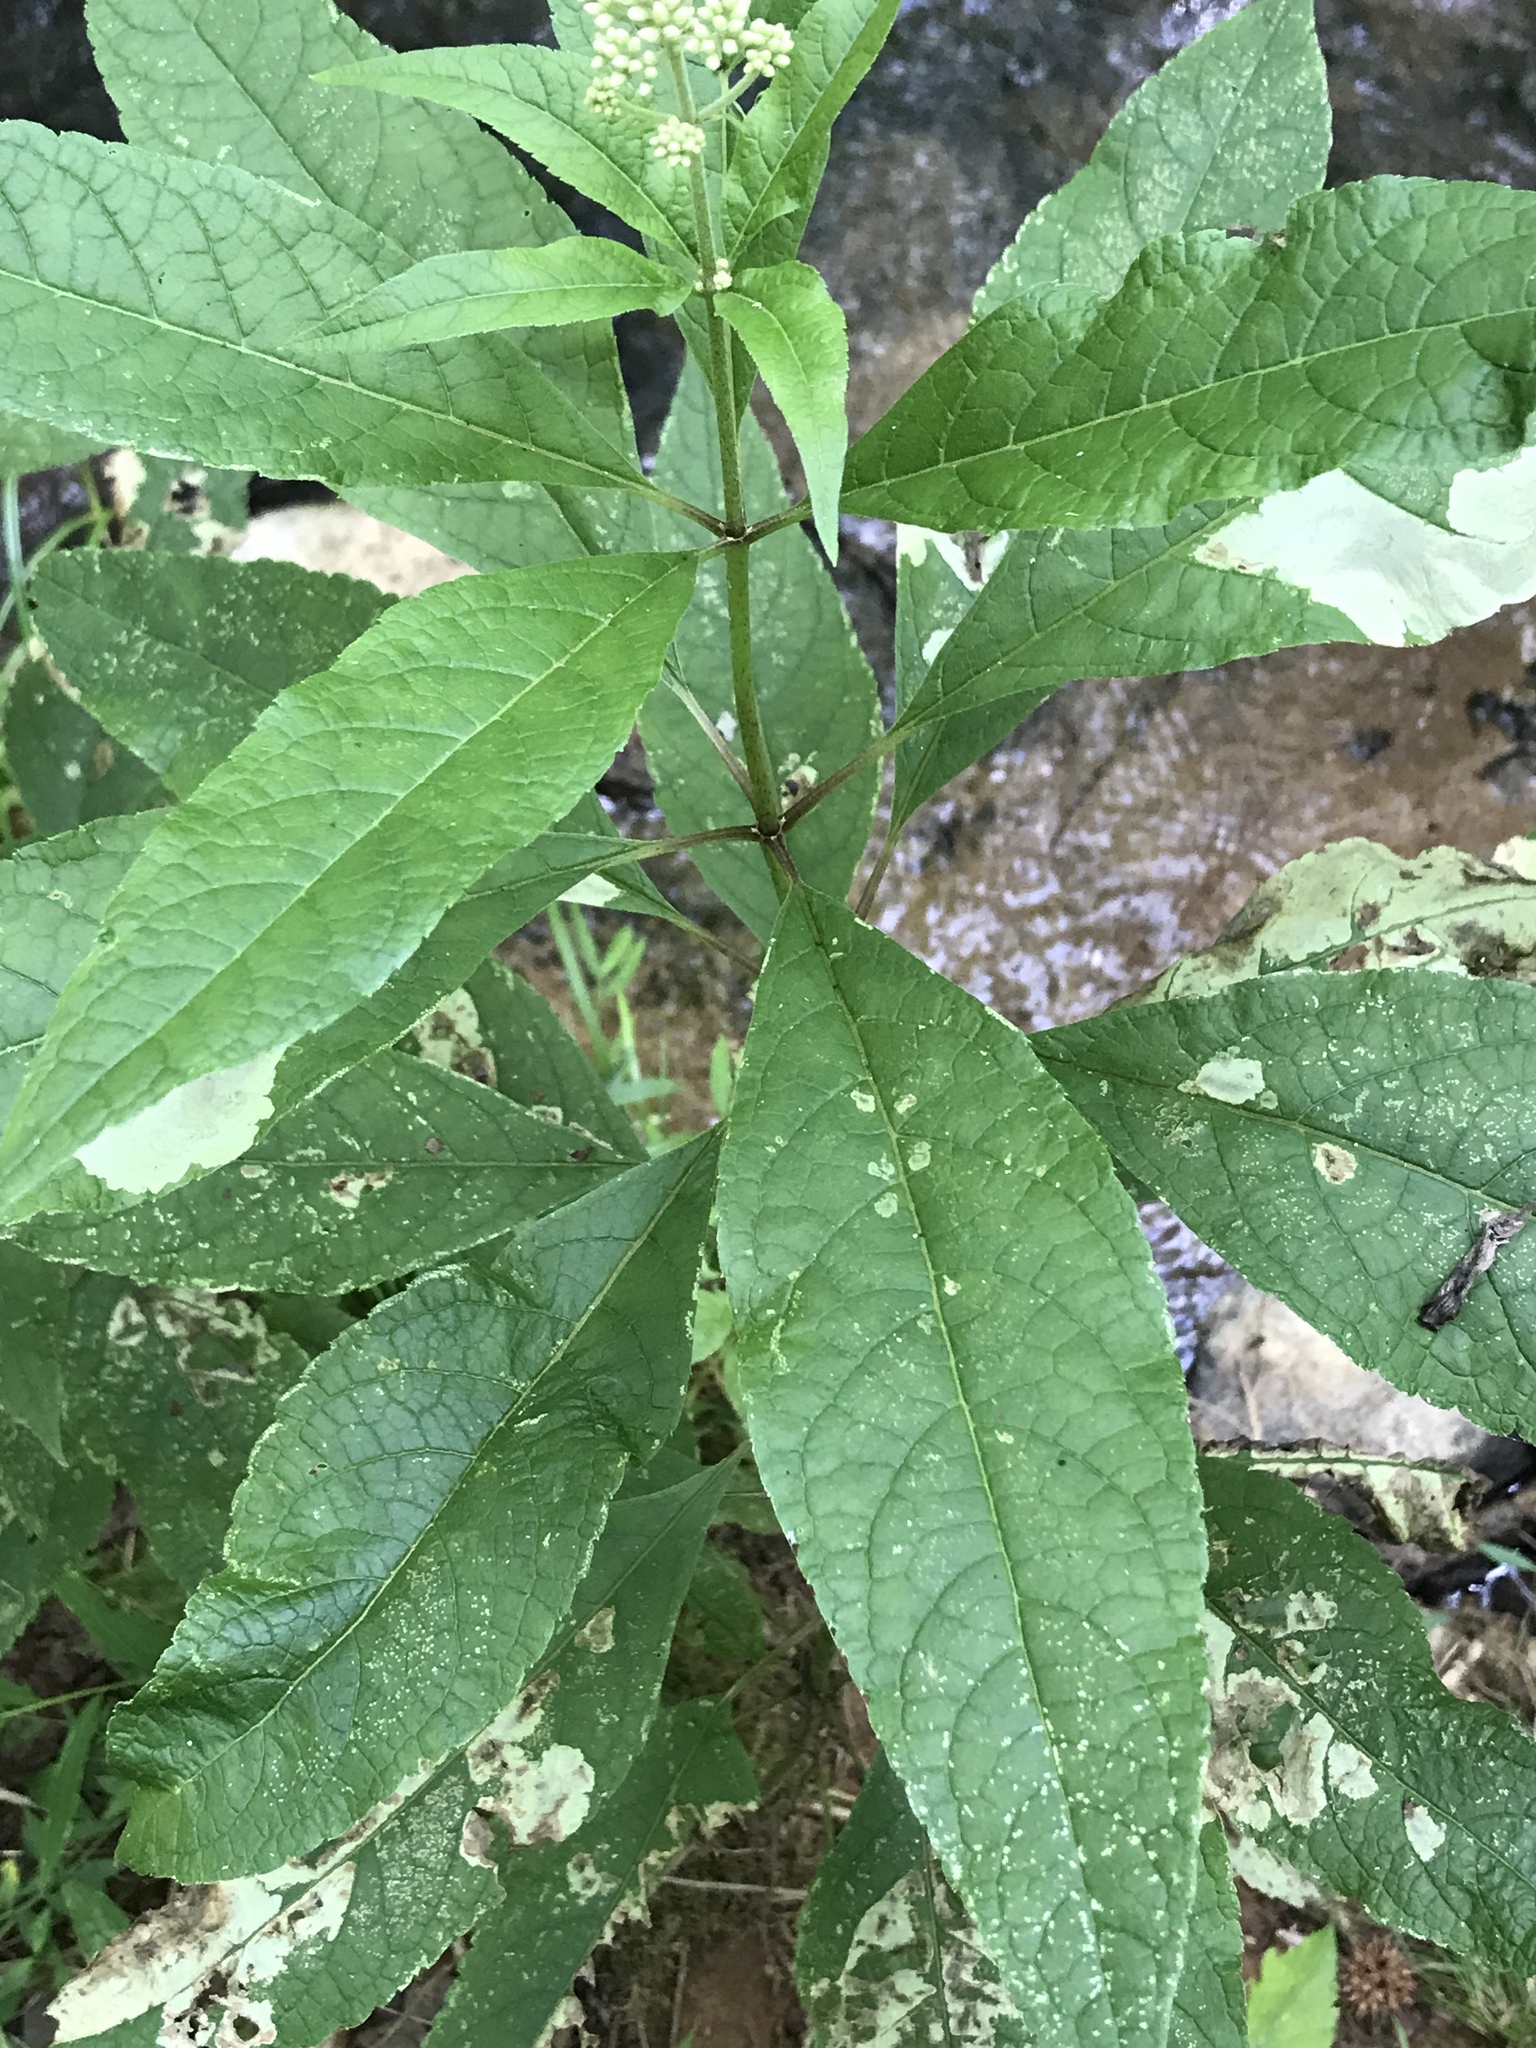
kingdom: Plantae
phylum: Tracheophyta
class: Magnoliopsida
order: Asterales
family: Asteraceae
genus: Eutrochium
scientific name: Eutrochium purpureum
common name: Gravelroot
